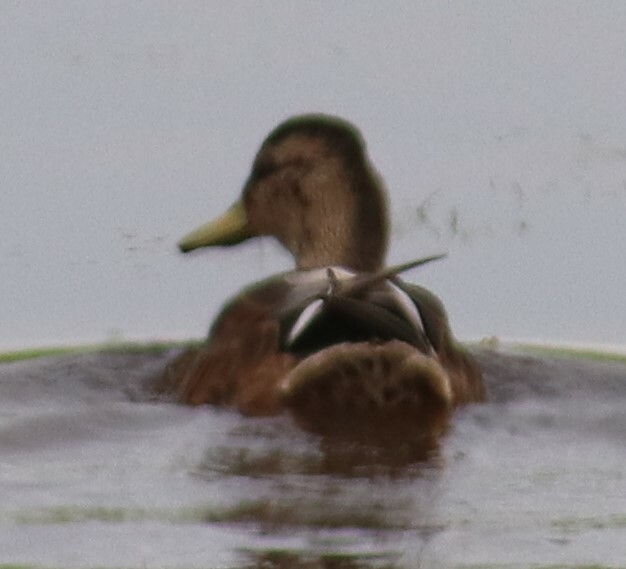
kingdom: Animalia
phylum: Chordata
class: Aves
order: Anseriformes
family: Anatidae
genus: Anas
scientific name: Anas platyrhynchos
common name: Mallard
